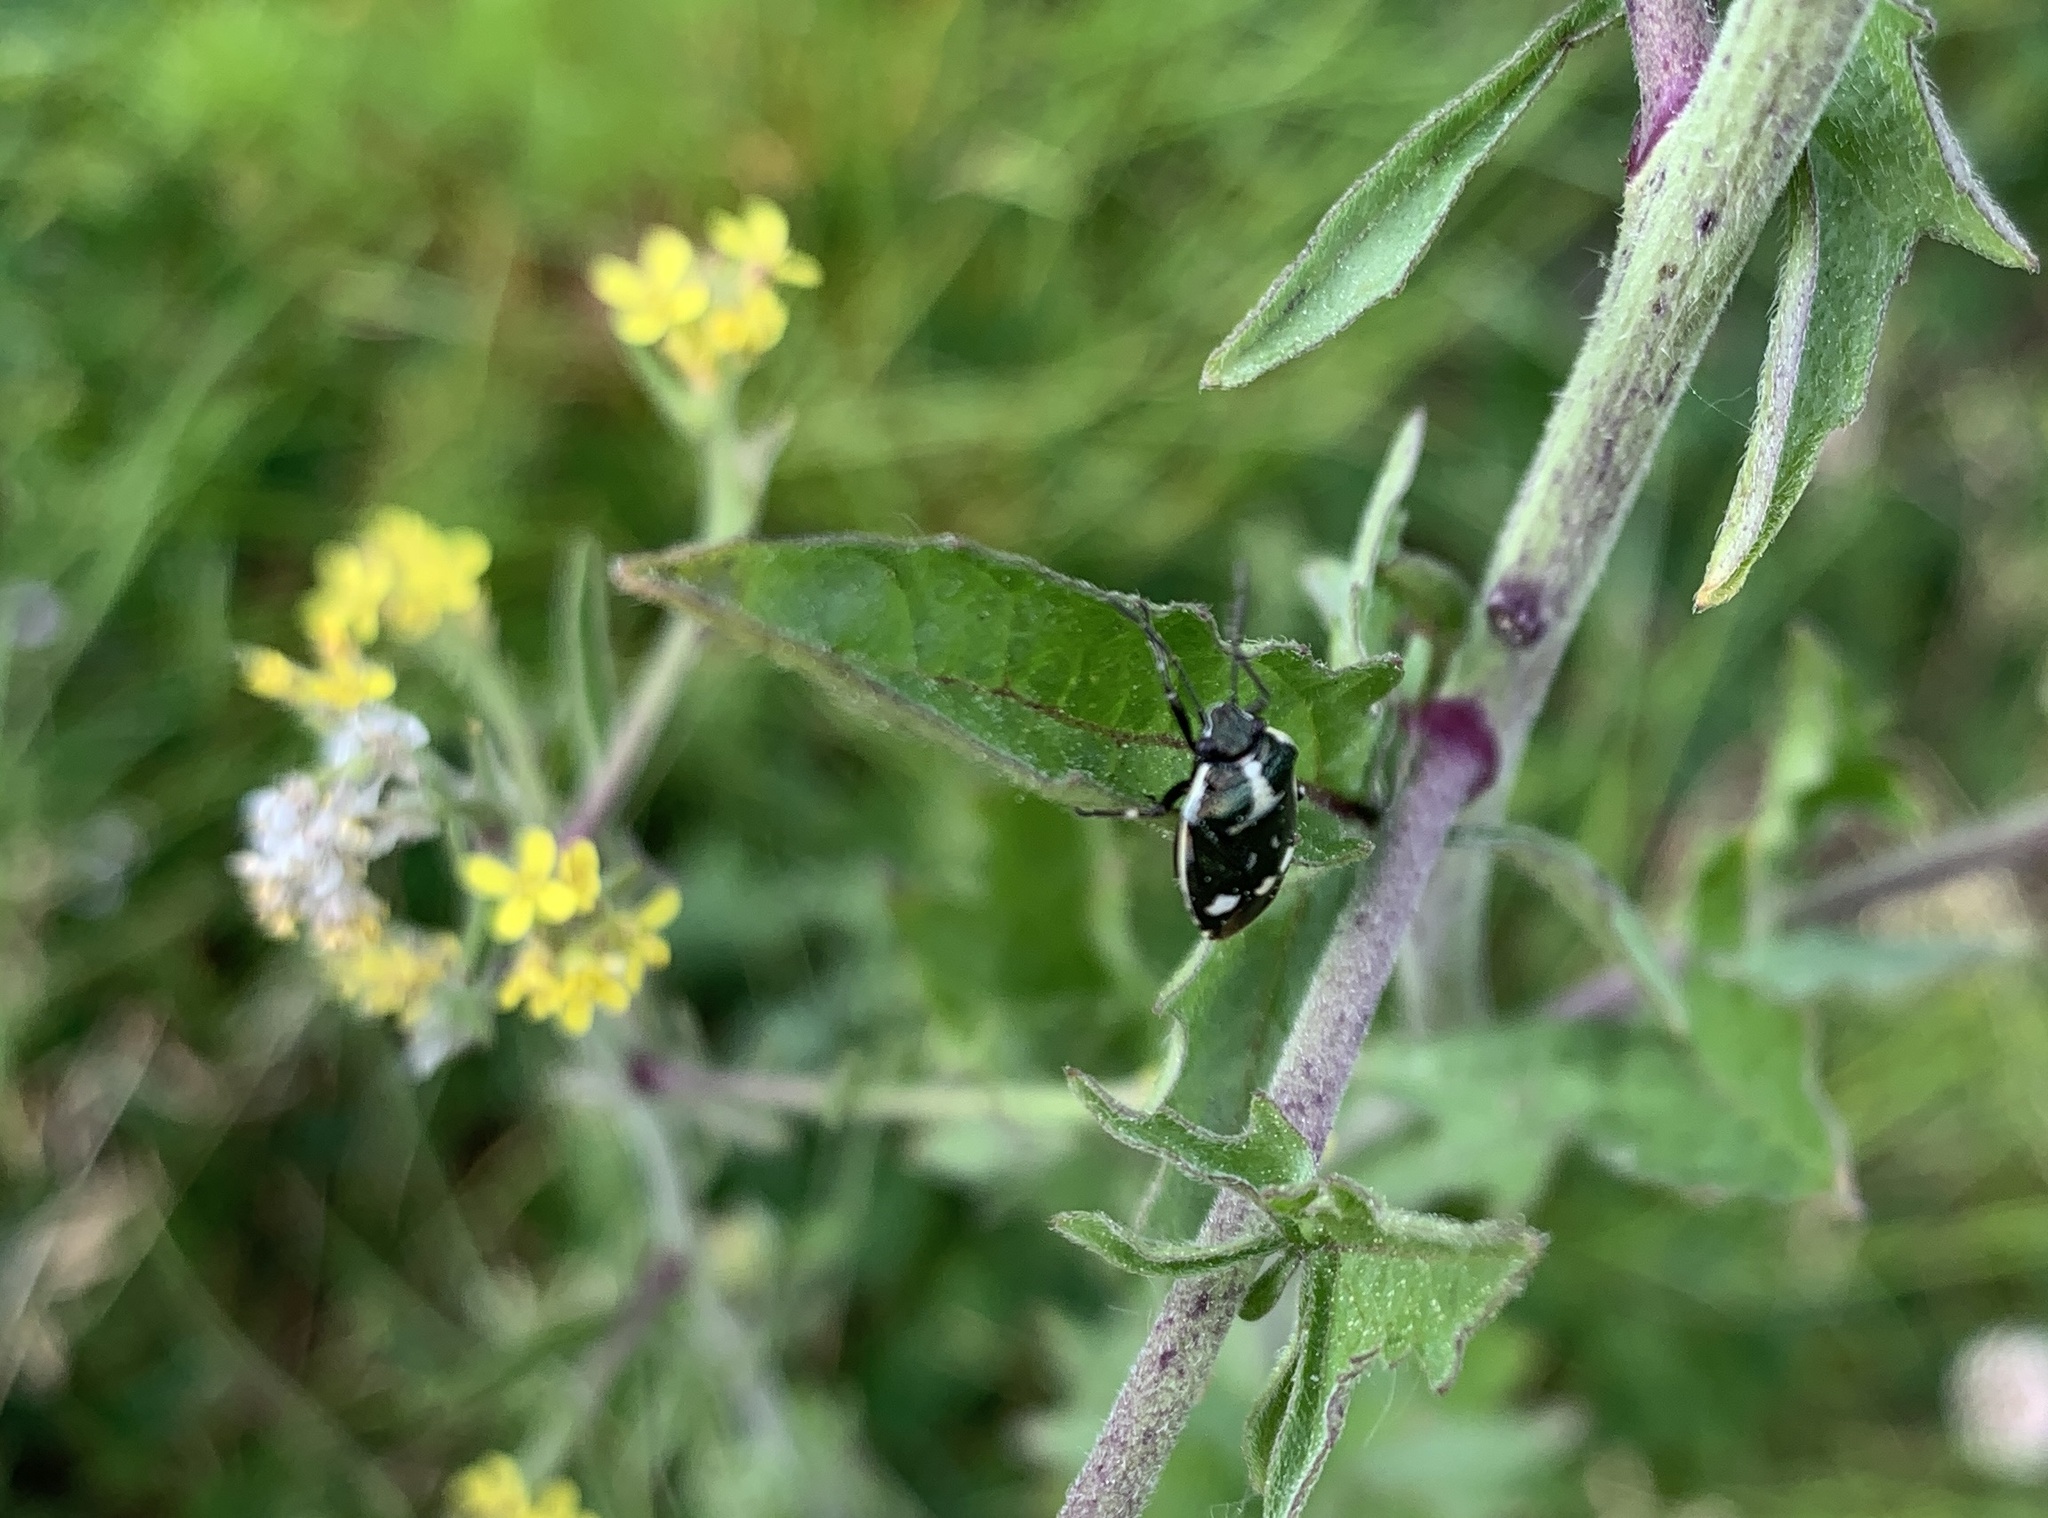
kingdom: Animalia
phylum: Arthropoda
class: Insecta
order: Hemiptera
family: Pentatomidae
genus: Eurydema
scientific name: Eurydema oleracea
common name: Cabbage bug
